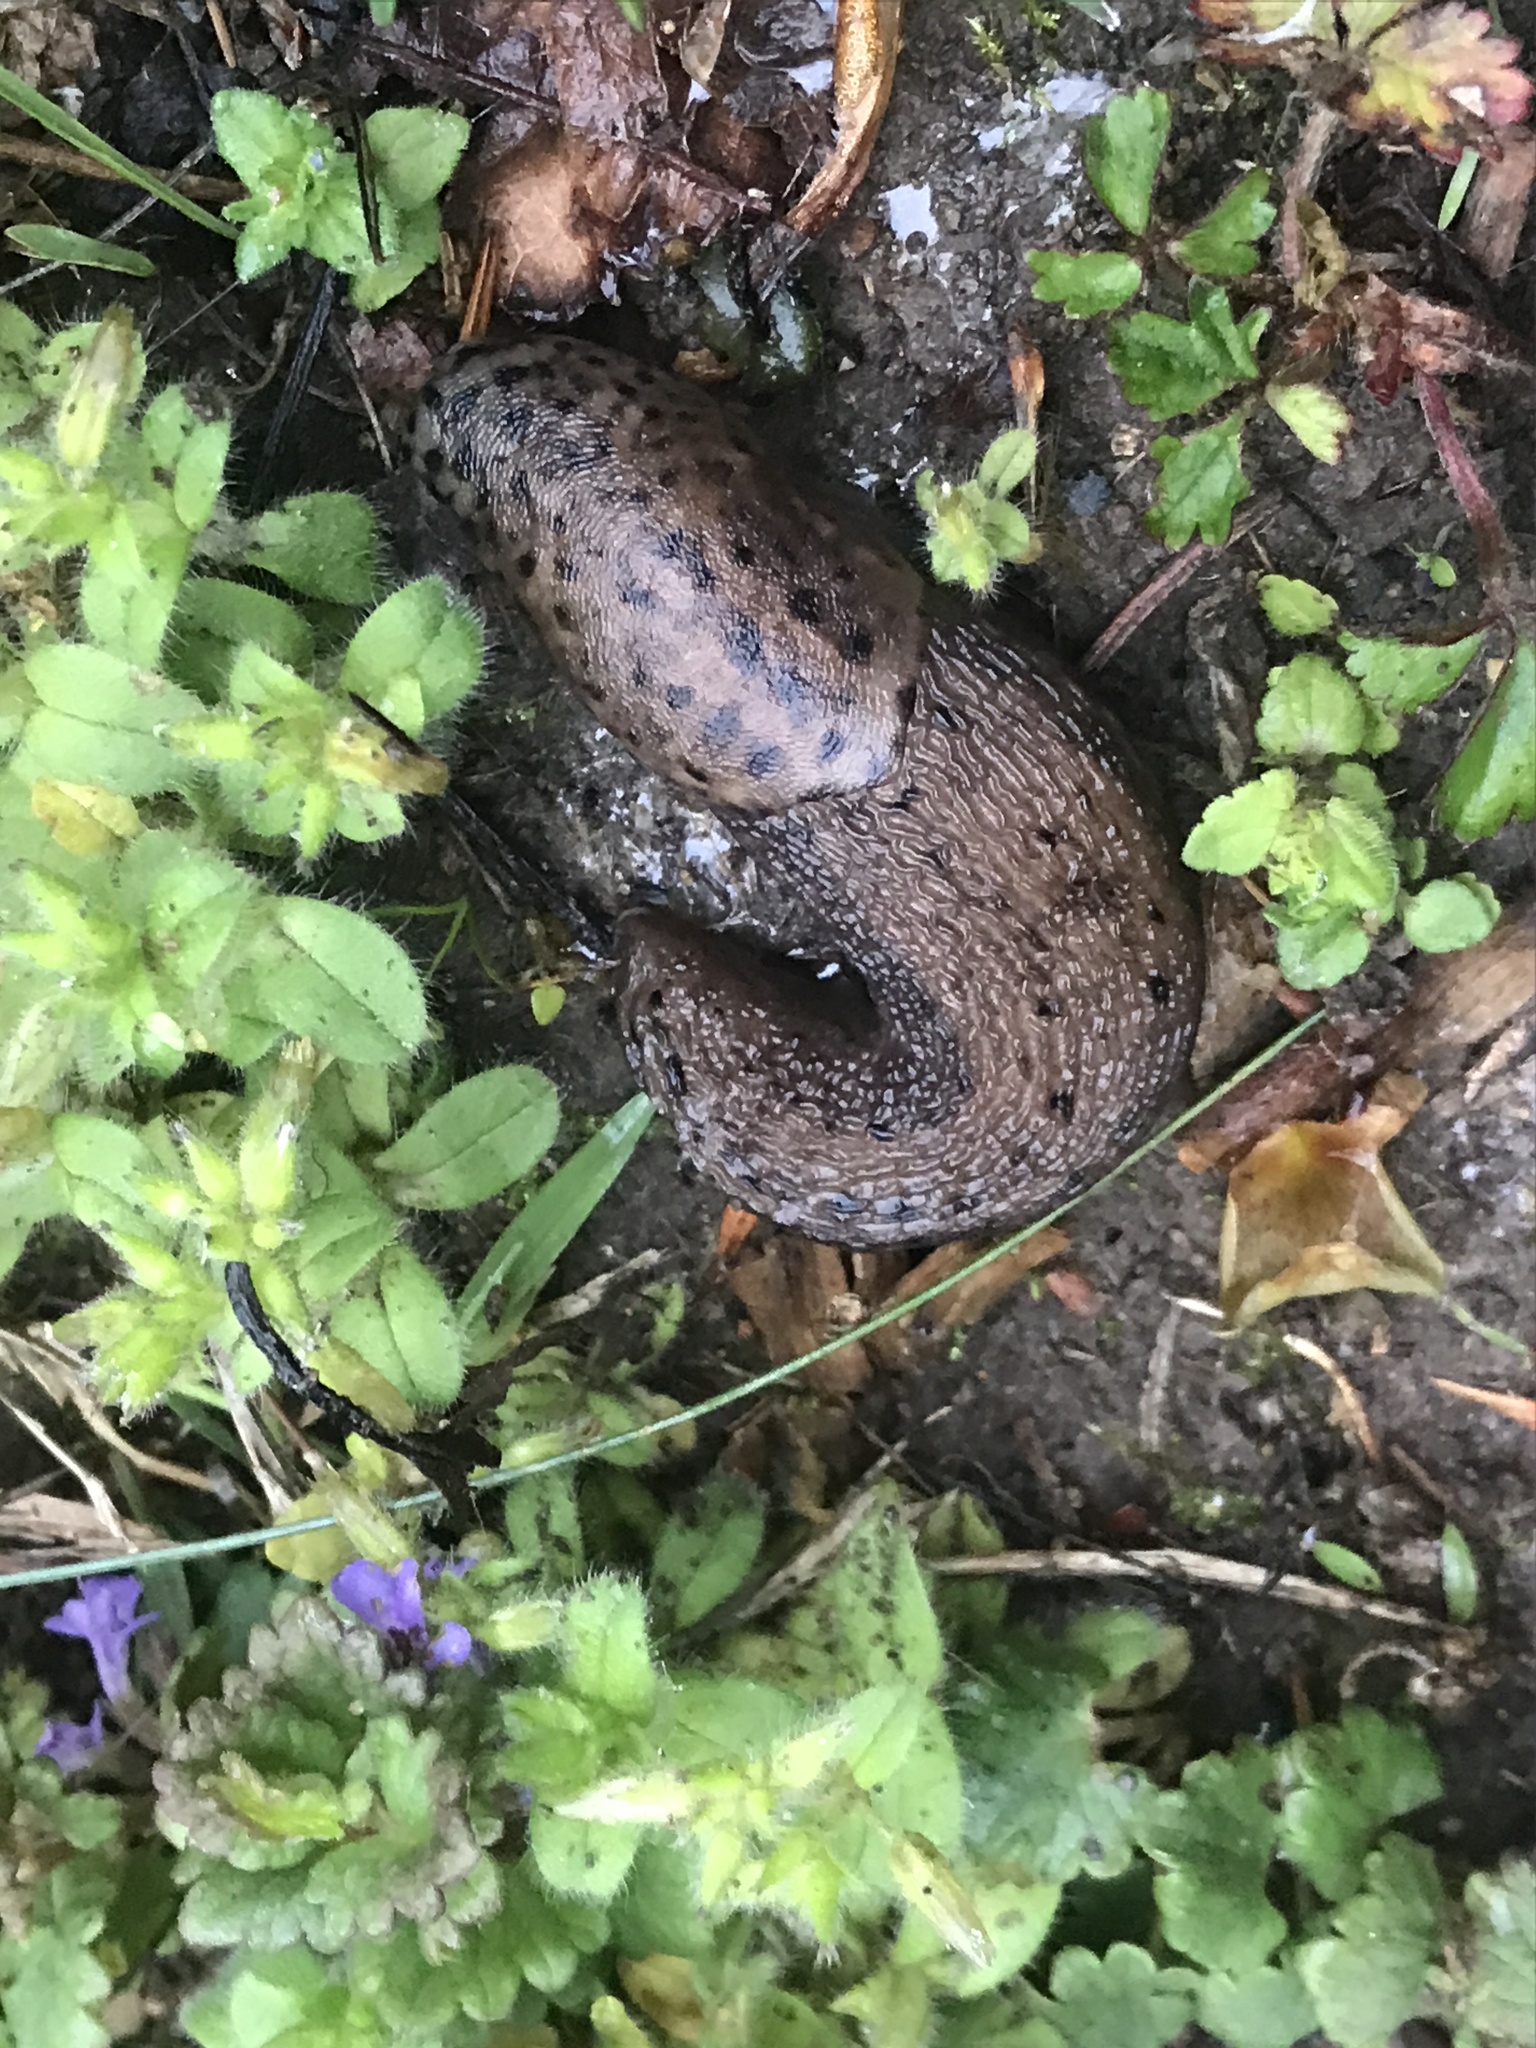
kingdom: Animalia
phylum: Mollusca
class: Gastropoda
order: Stylommatophora
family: Limacidae
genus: Limax
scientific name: Limax maximus
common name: Great grey slug
